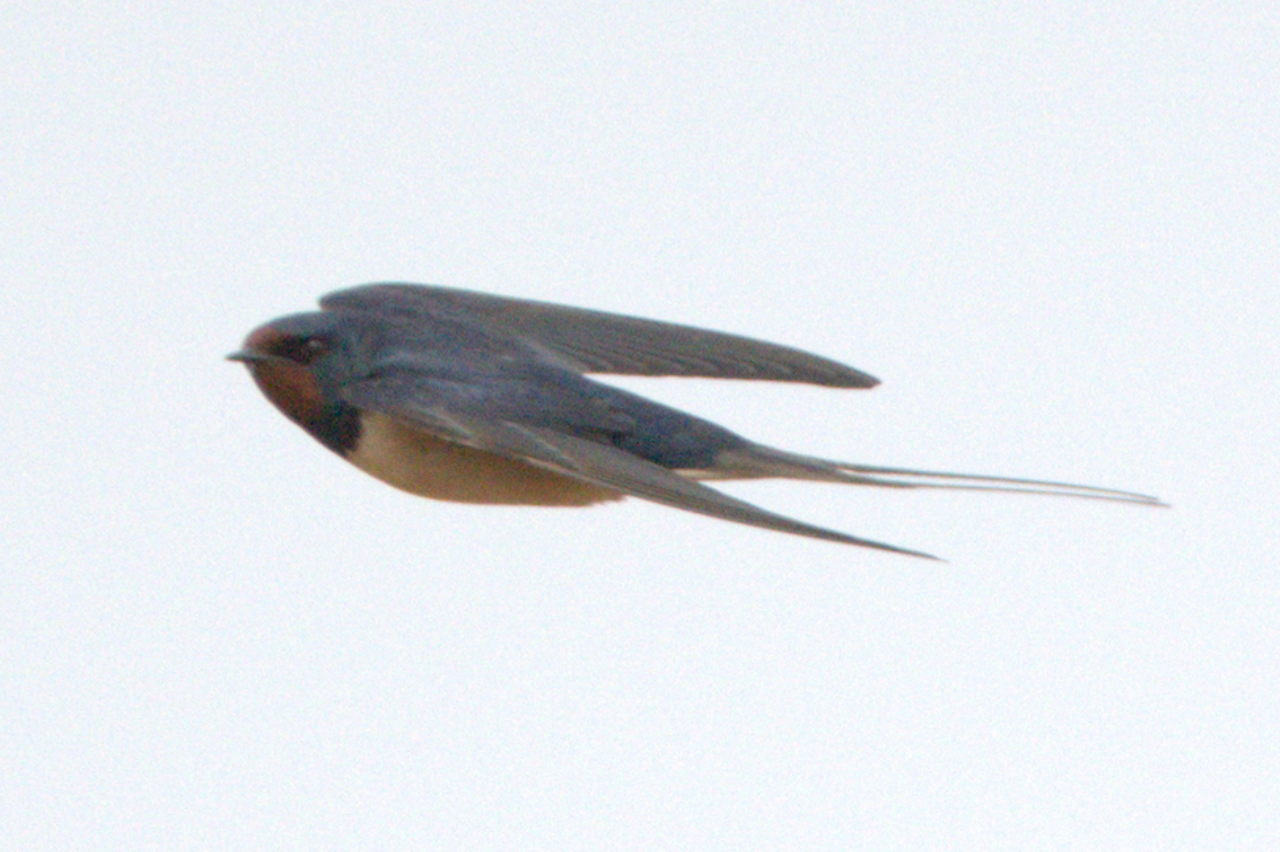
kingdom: Animalia
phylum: Chordata
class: Aves
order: Passeriformes
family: Hirundinidae
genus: Hirundo
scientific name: Hirundo rustica
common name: Barn swallow
